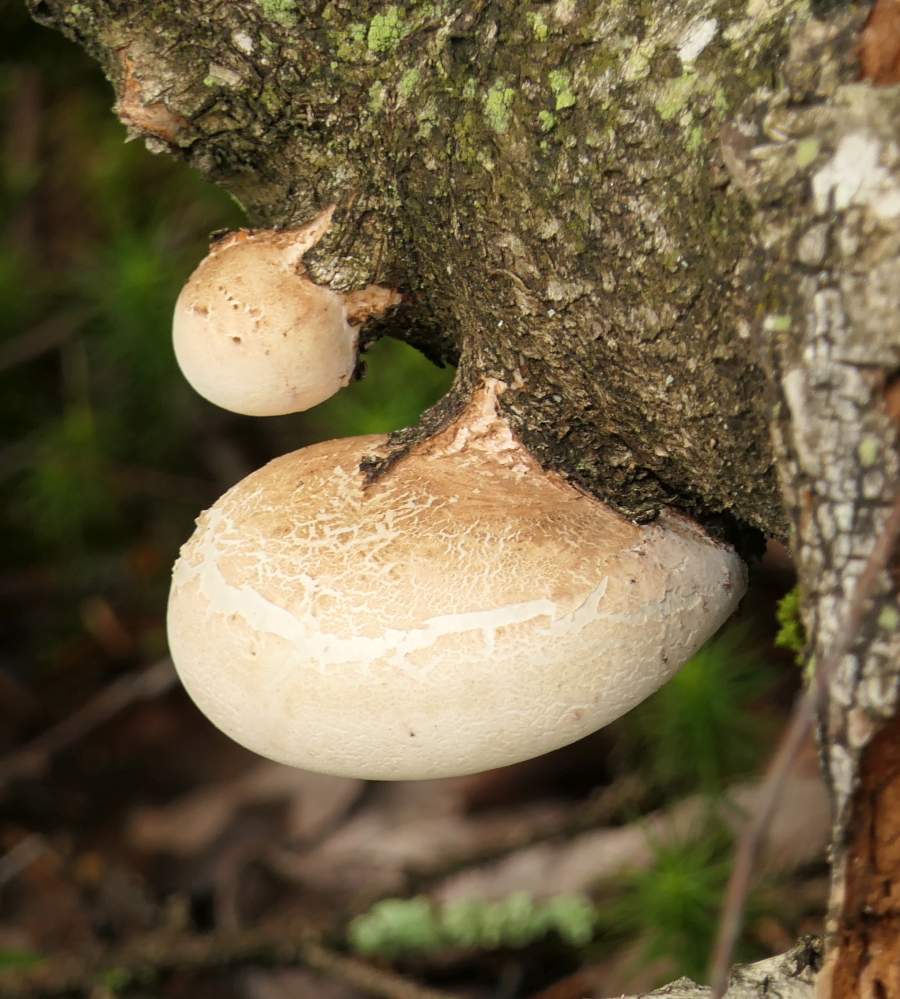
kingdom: Fungi
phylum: Basidiomycota
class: Agaricomycetes
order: Polyporales
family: Fomitopsidaceae
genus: Fomitopsis
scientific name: Fomitopsis betulina
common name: Birch polypore
